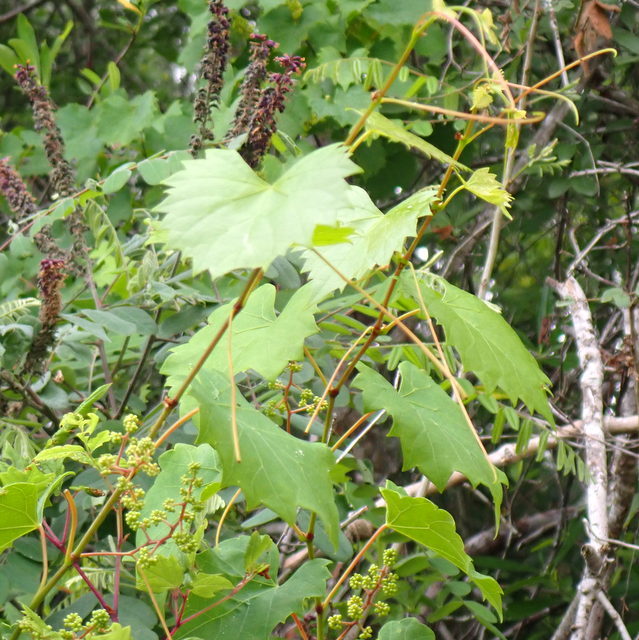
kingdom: Plantae
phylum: Tracheophyta
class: Magnoliopsida
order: Vitales
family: Vitaceae
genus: Vitis
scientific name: Vitis rotundifolia
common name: Muscadine grape
